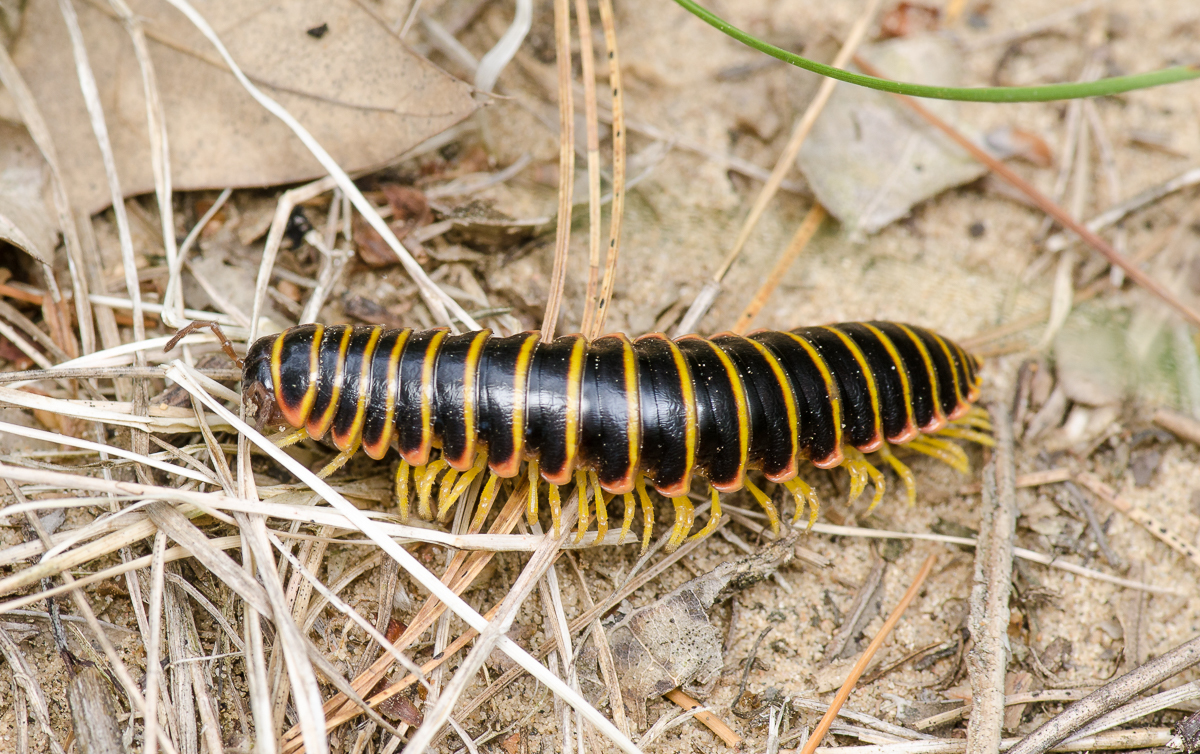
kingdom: Animalia
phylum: Arthropoda
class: Diplopoda
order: Polydesmida
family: Xystodesmidae
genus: Apheloria
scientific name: Apheloria virginiensis
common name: Black-and-gold flat millipede
